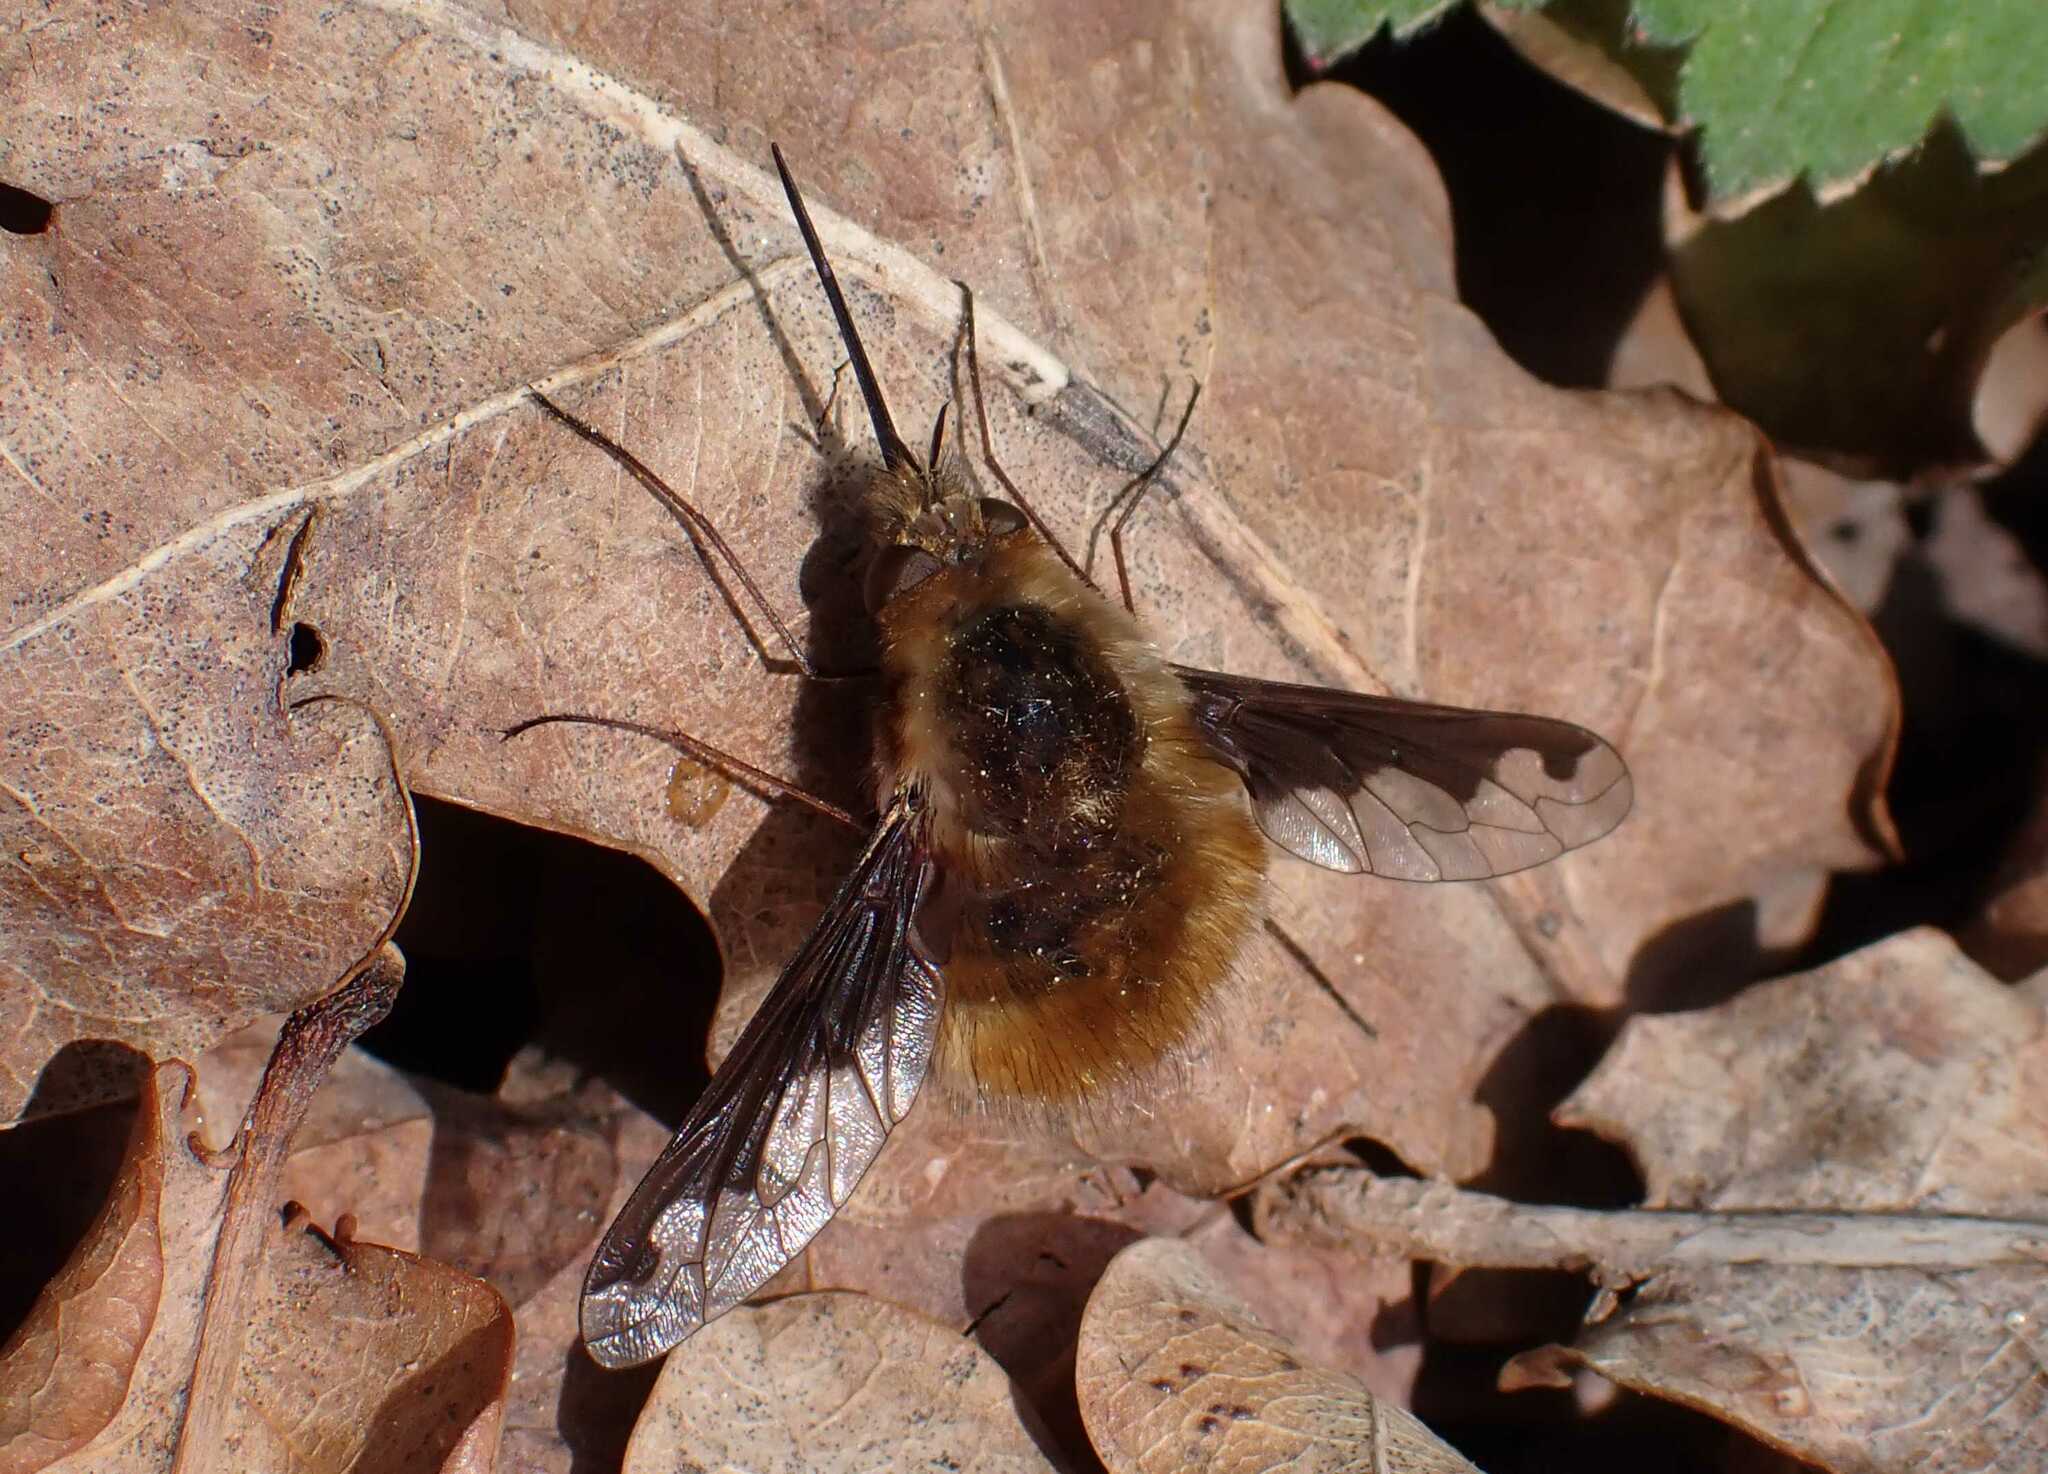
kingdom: Animalia
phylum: Arthropoda
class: Insecta
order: Diptera
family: Bombyliidae
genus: Bombylius
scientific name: Bombylius major
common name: Bee fly
